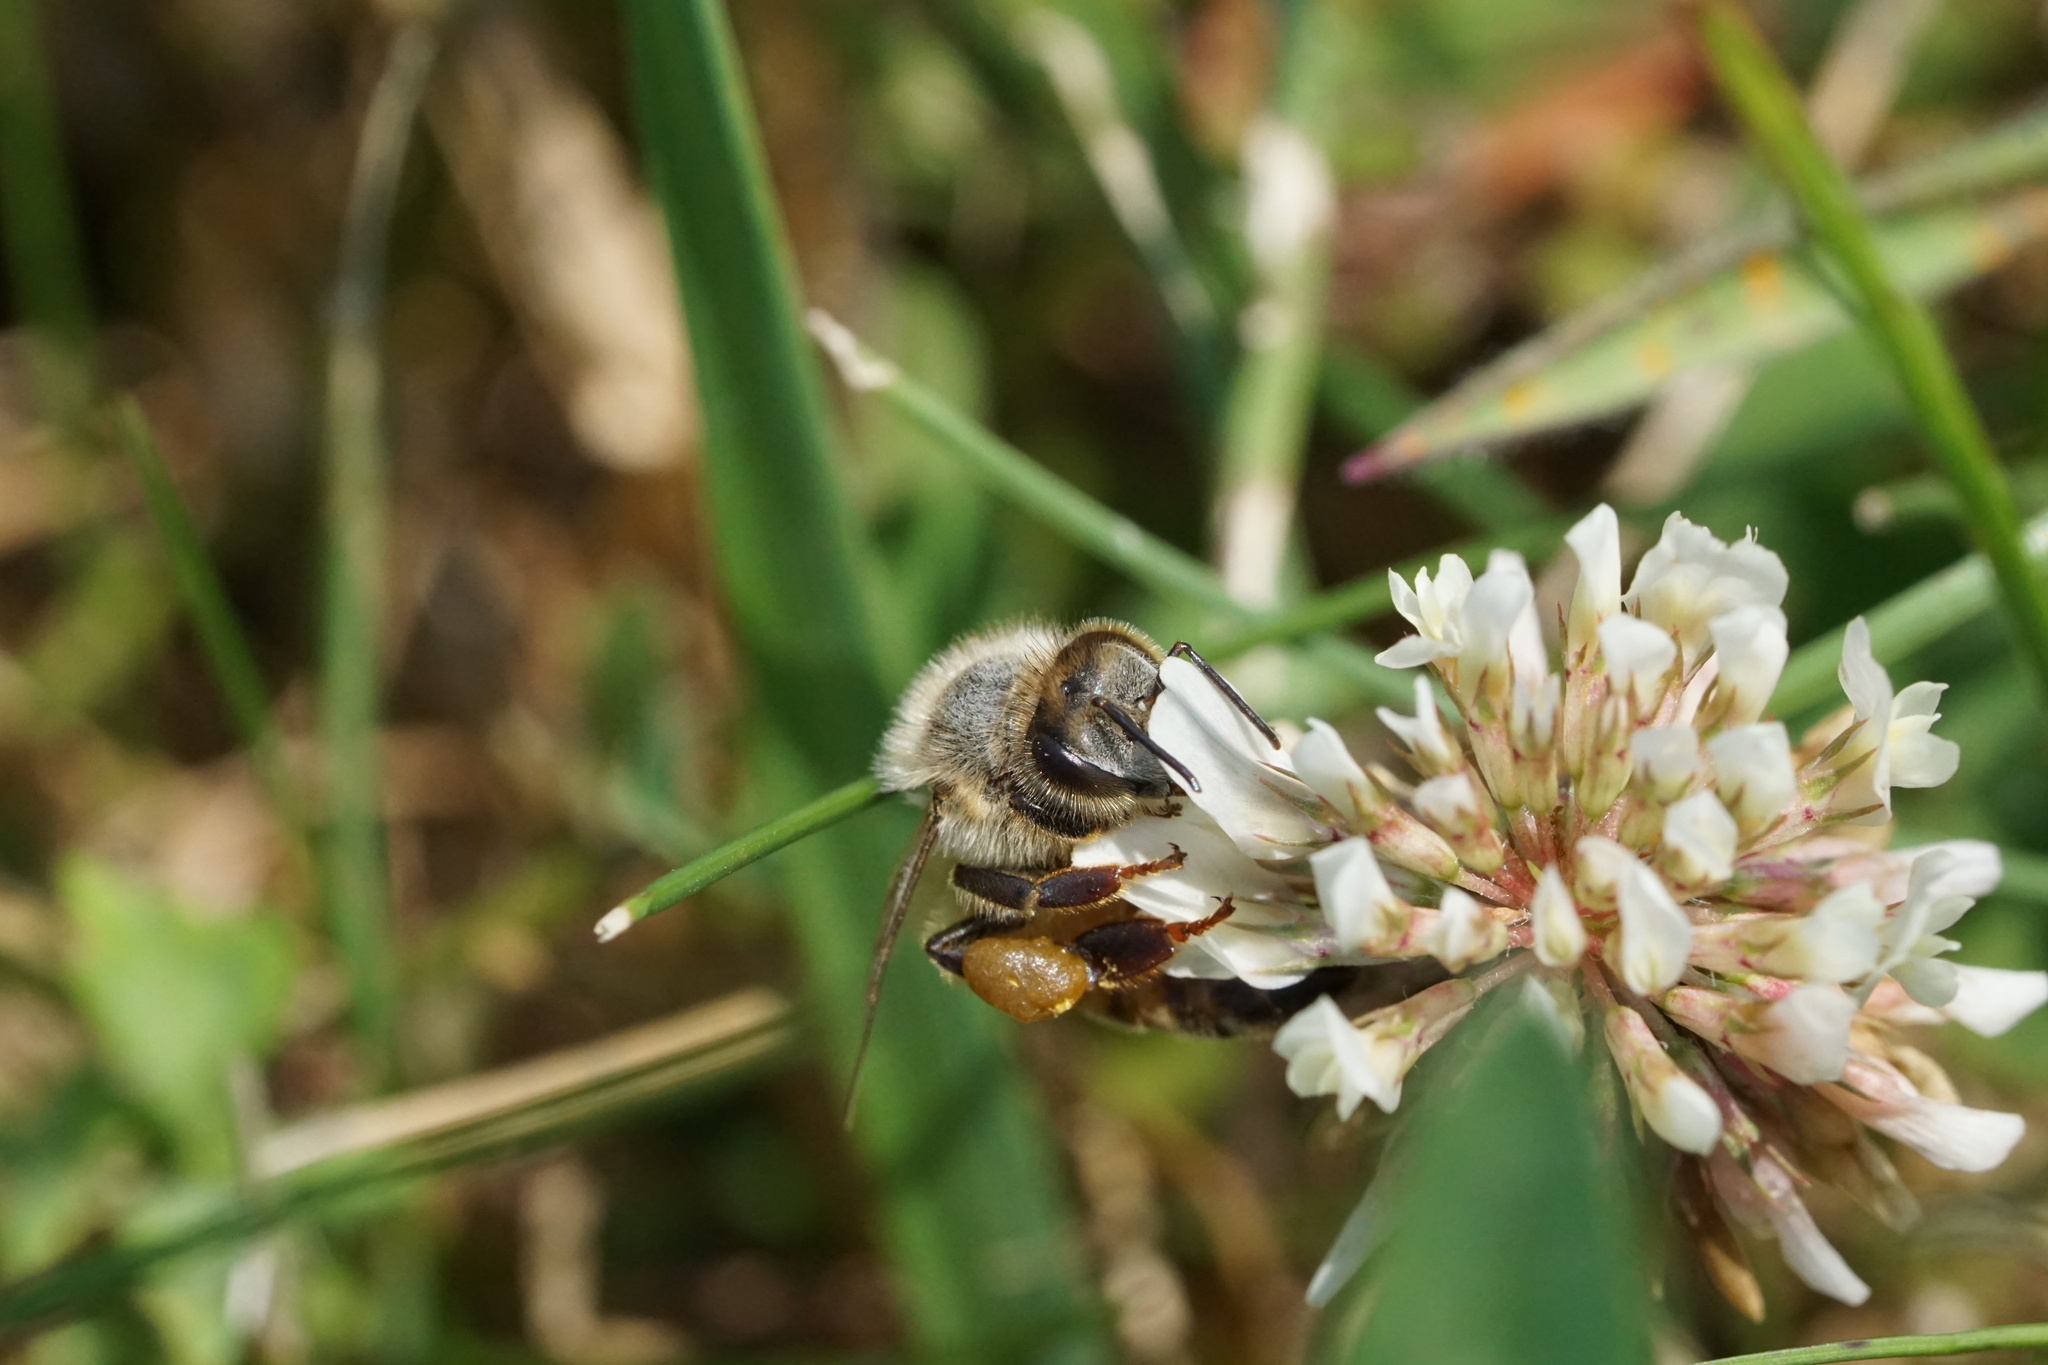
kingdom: Animalia
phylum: Arthropoda
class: Insecta
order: Hymenoptera
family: Apidae
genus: Apis
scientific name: Apis mellifera
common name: Honey bee
